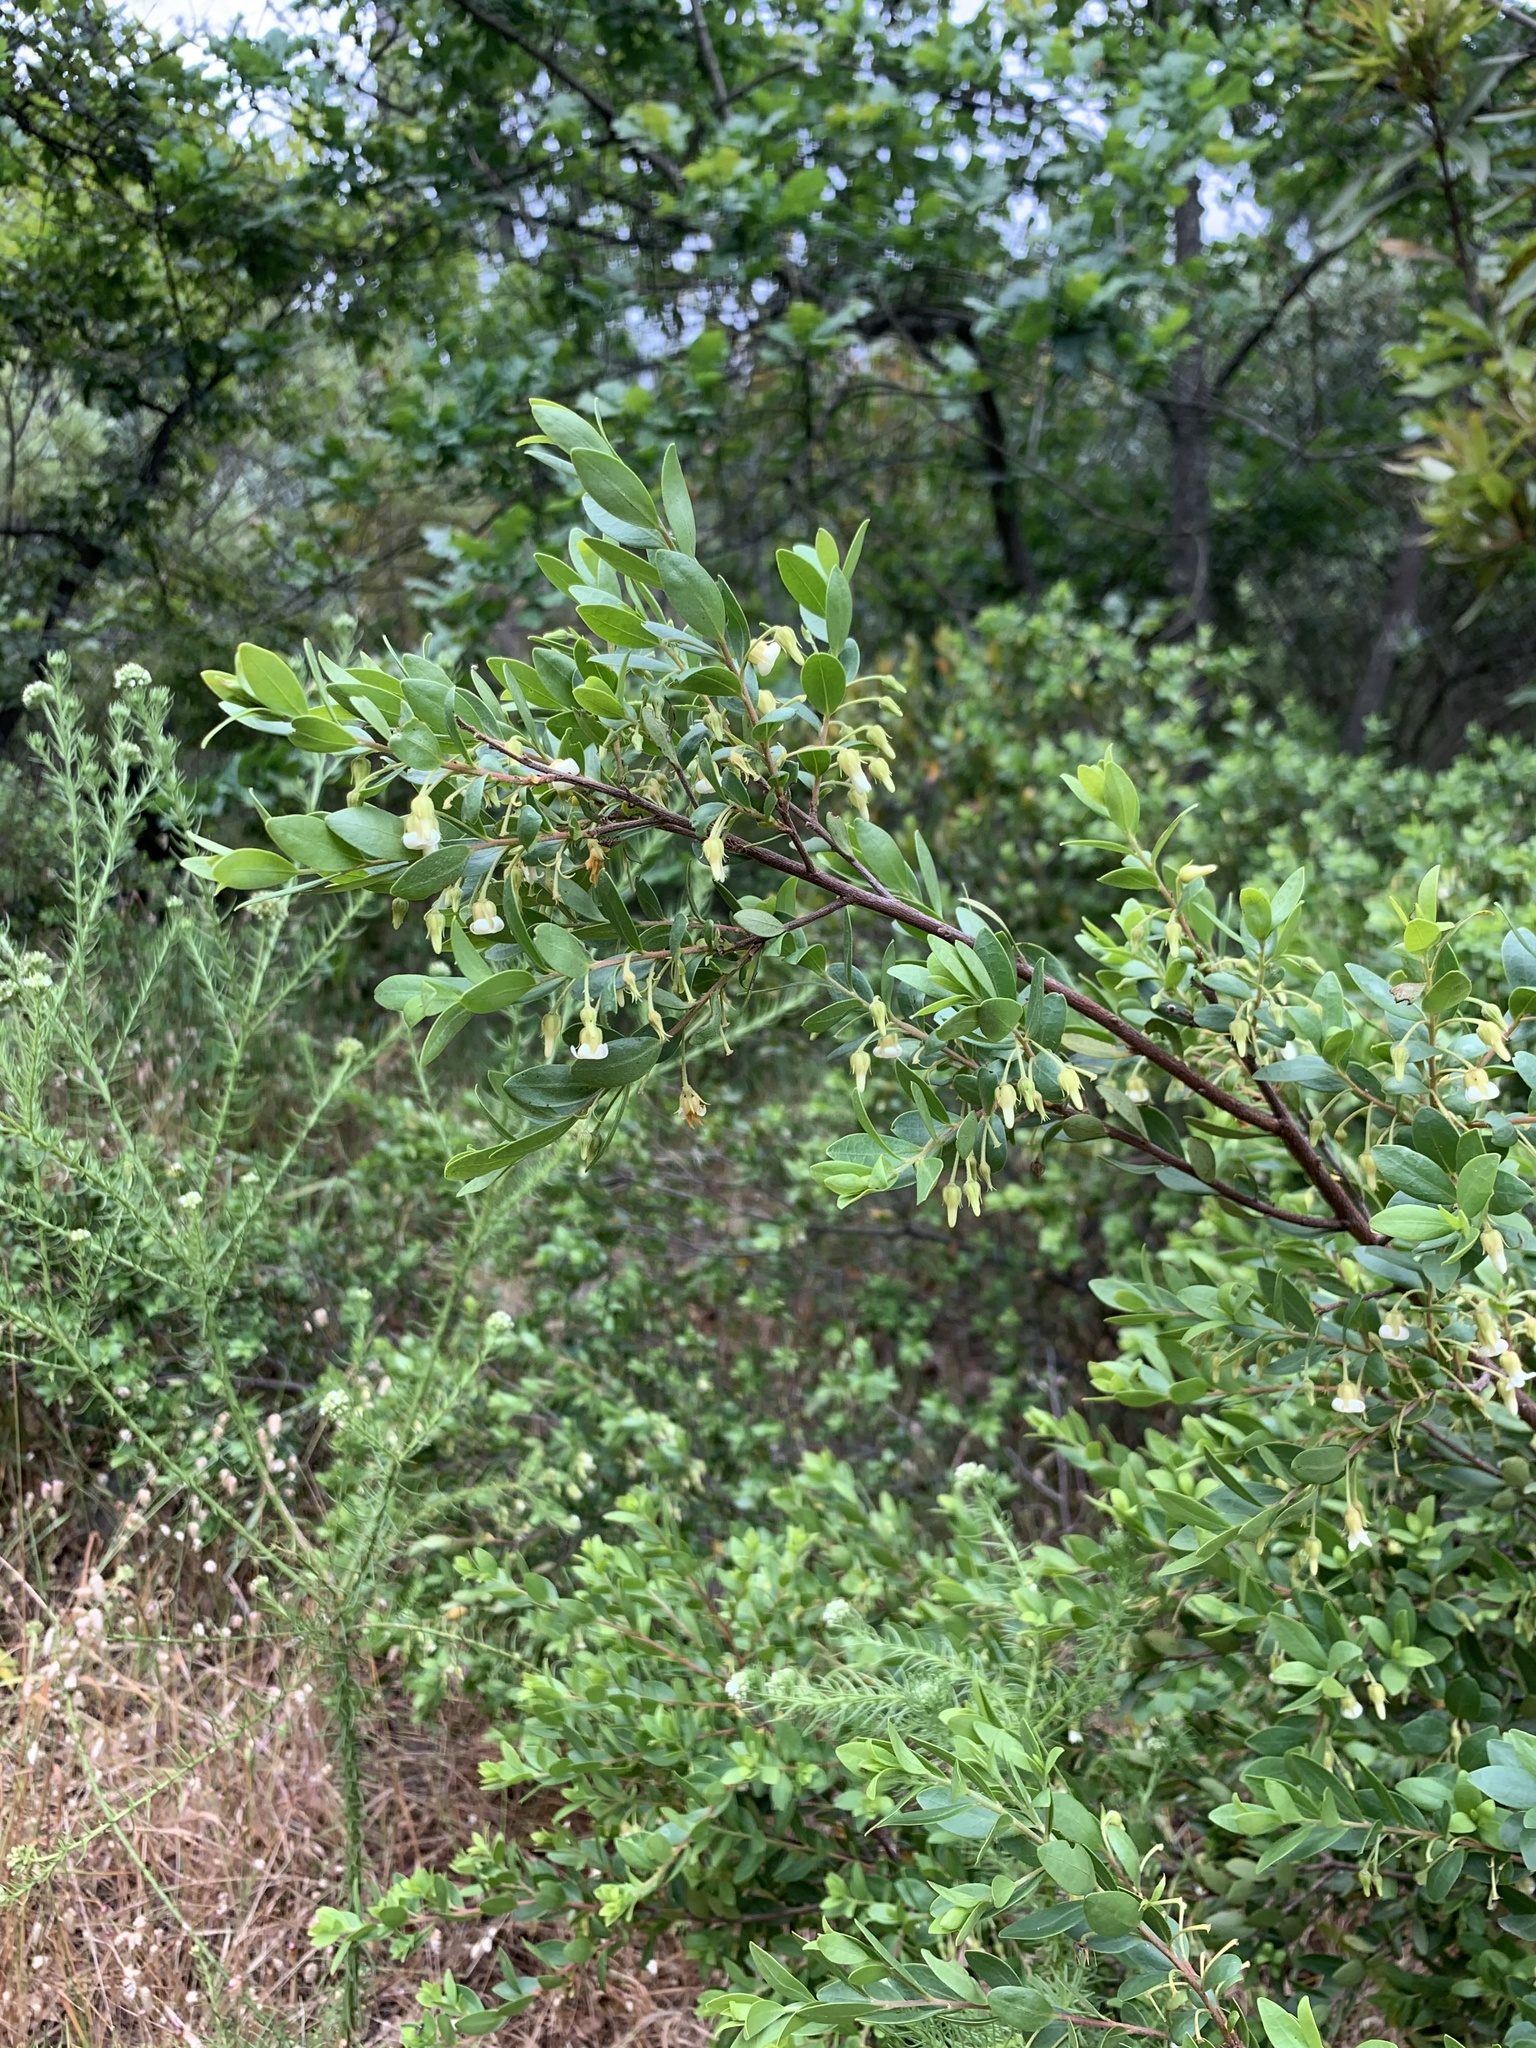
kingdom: Plantae
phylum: Tracheophyta
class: Magnoliopsida
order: Ericales
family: Ebenaceae
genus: Diospyros
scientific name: Diospyros glabra
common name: Fynbos star apple
